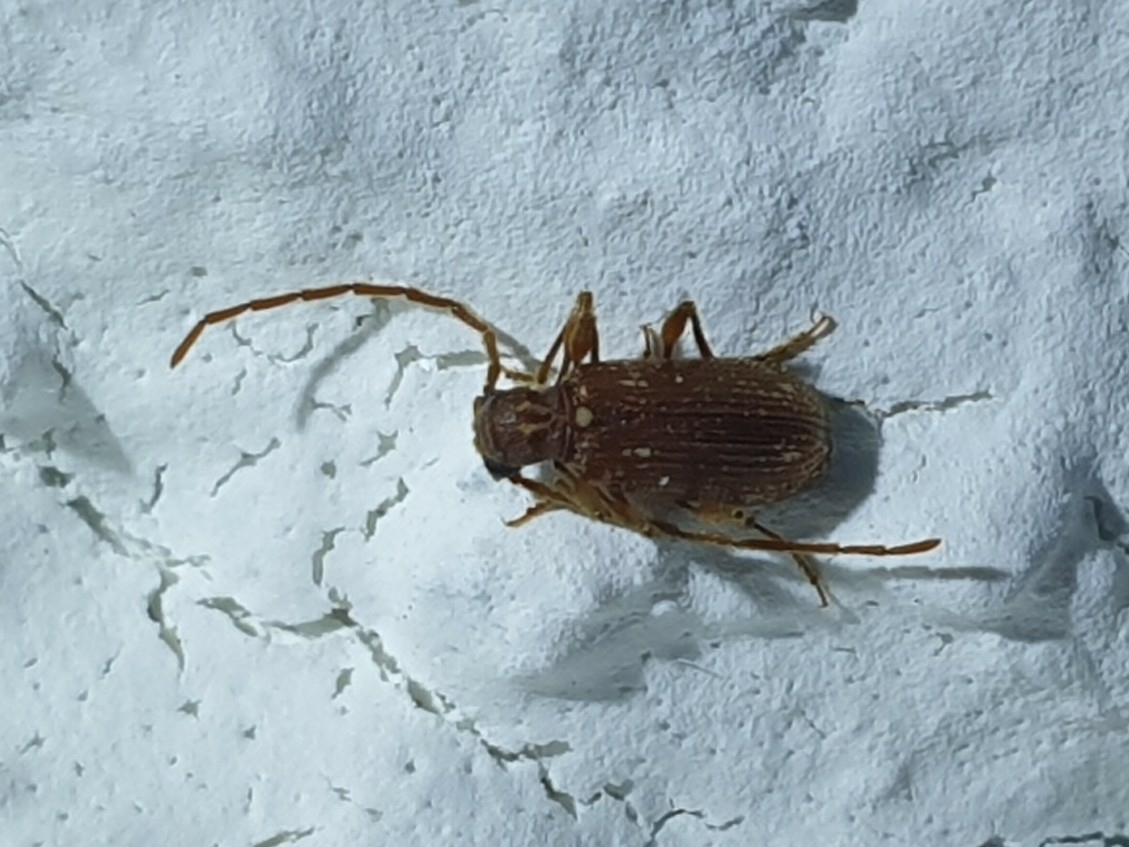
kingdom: Animalia
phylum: Arthropoda
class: Insecta
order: Coleoptera
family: Ptinidae
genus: Ptinus
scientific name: Ptinus fur
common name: White-marked spider beetle
